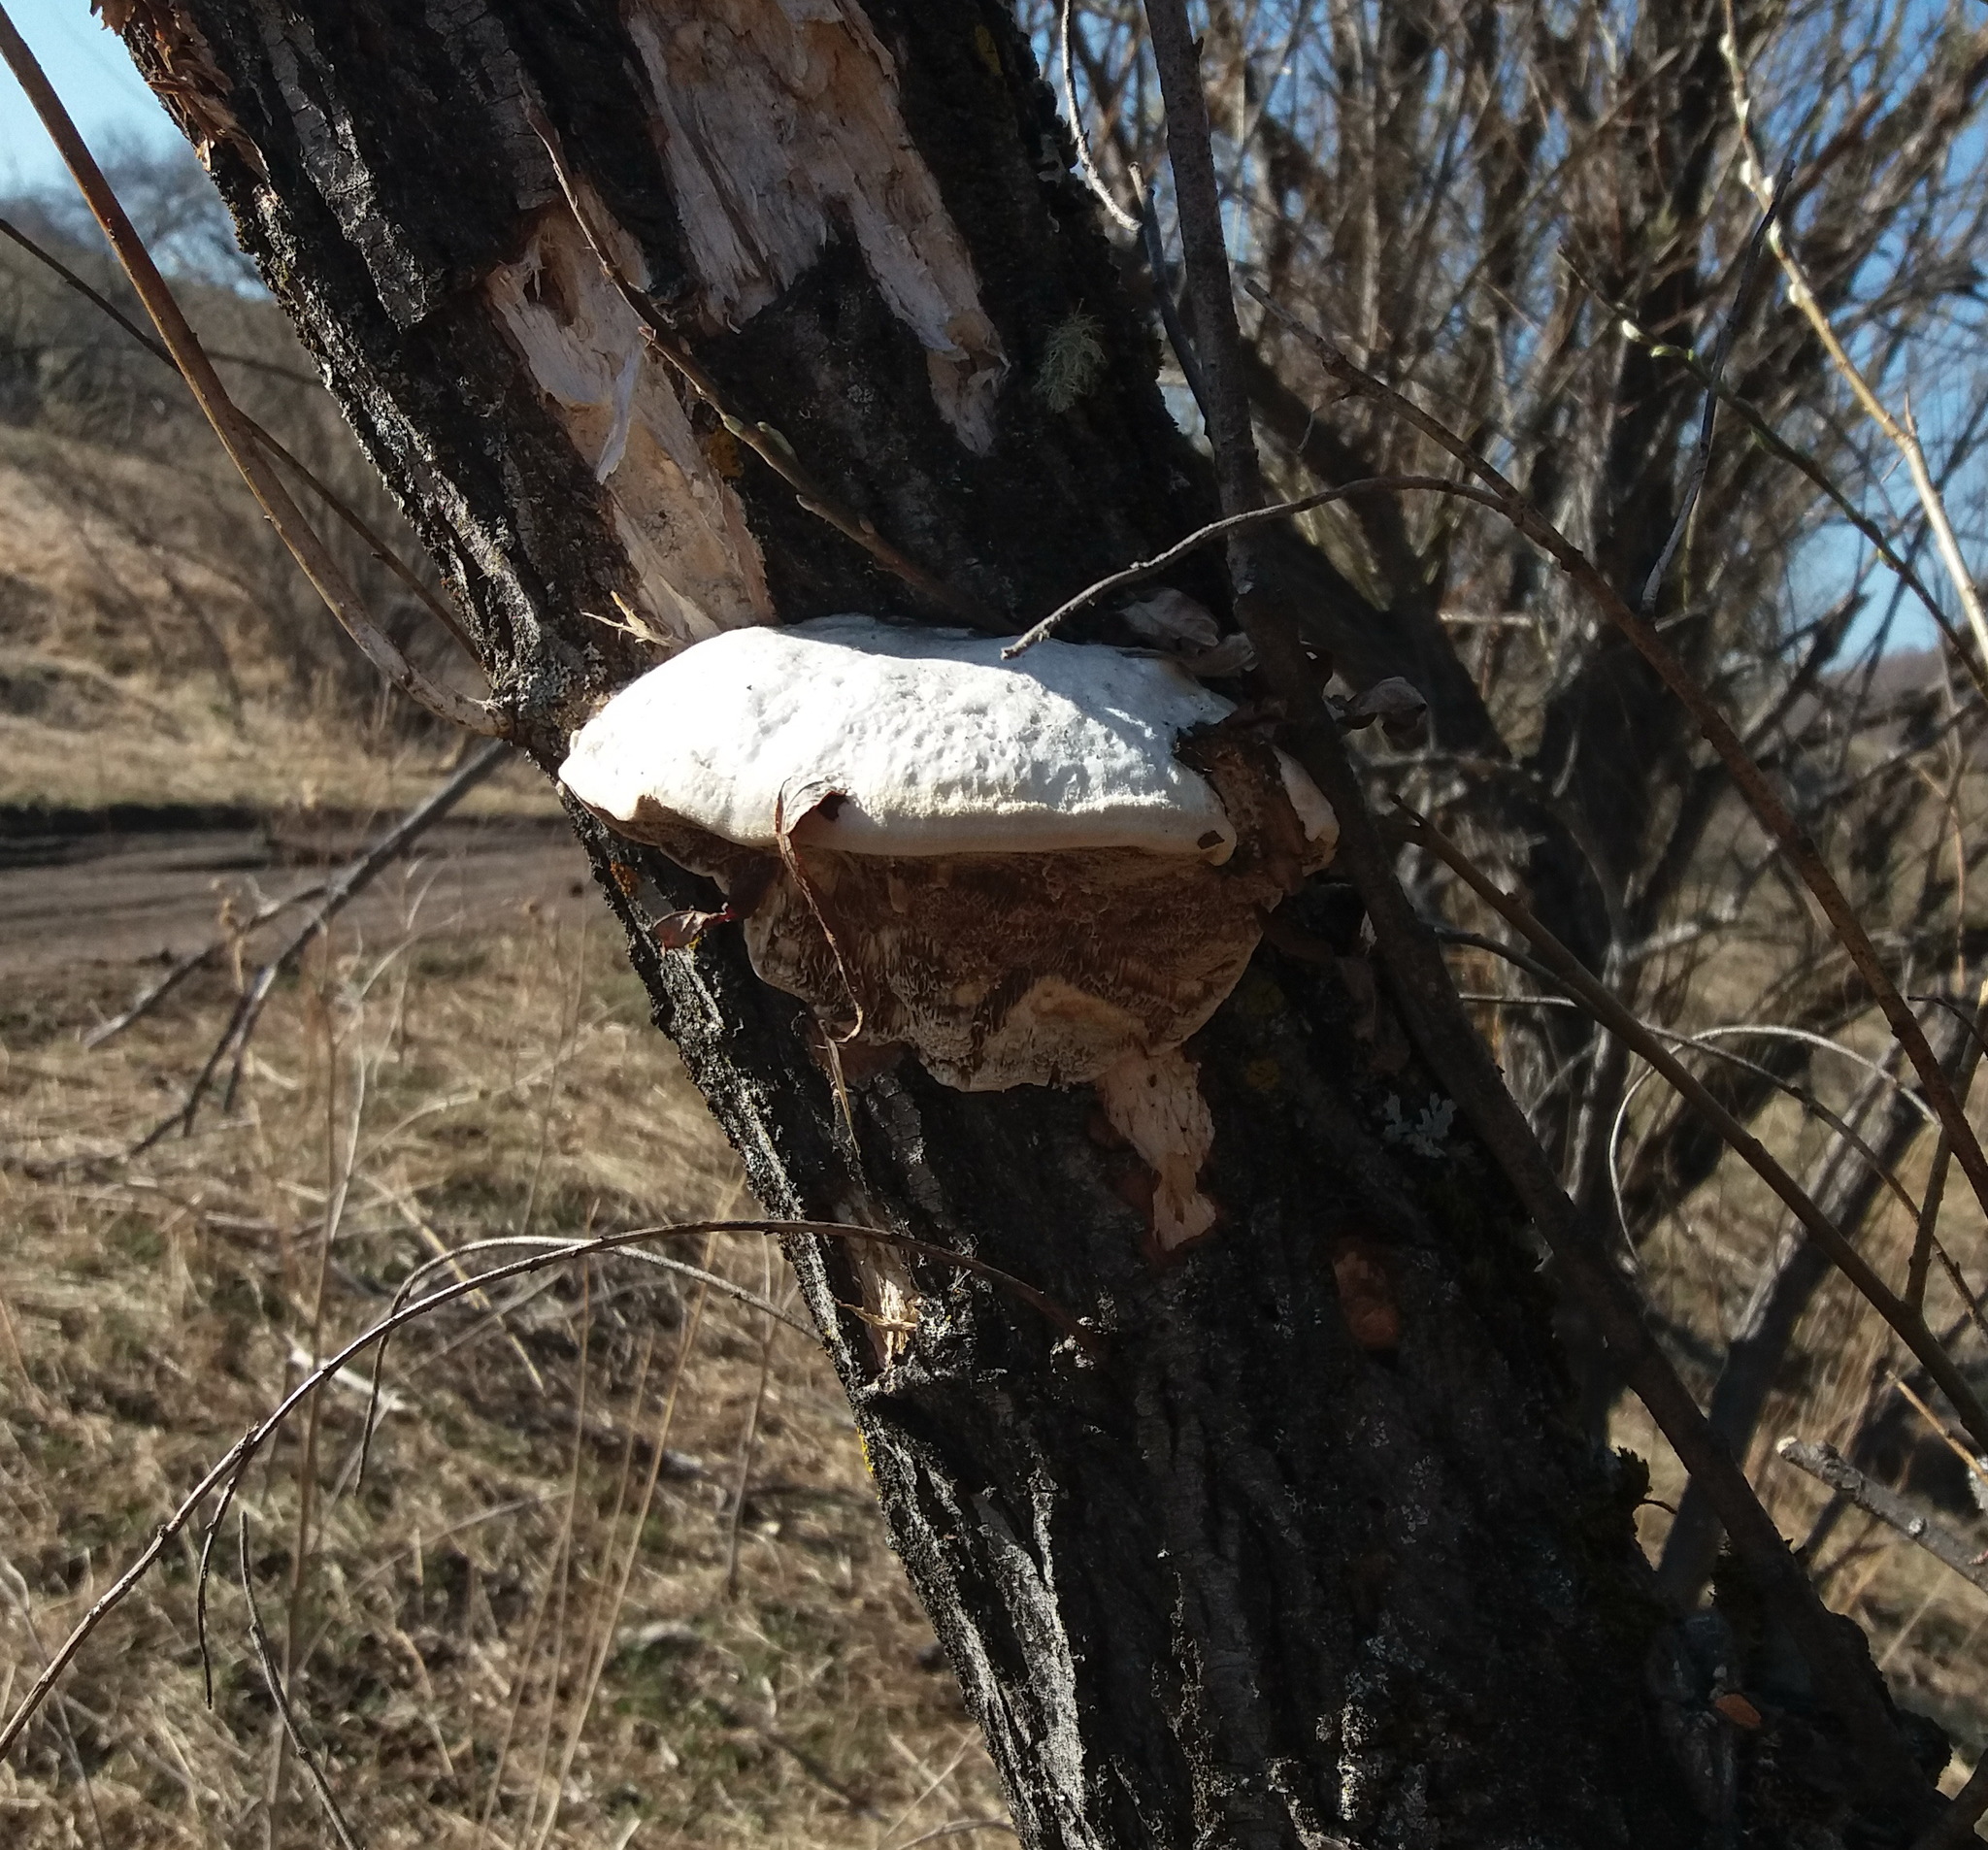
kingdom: Fungi
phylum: Basidiomycota
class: Agaricomycetes
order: Polyporales
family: Polyporaceae
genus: Trametes
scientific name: Trametes suaveolens
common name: Fragrant bracket
